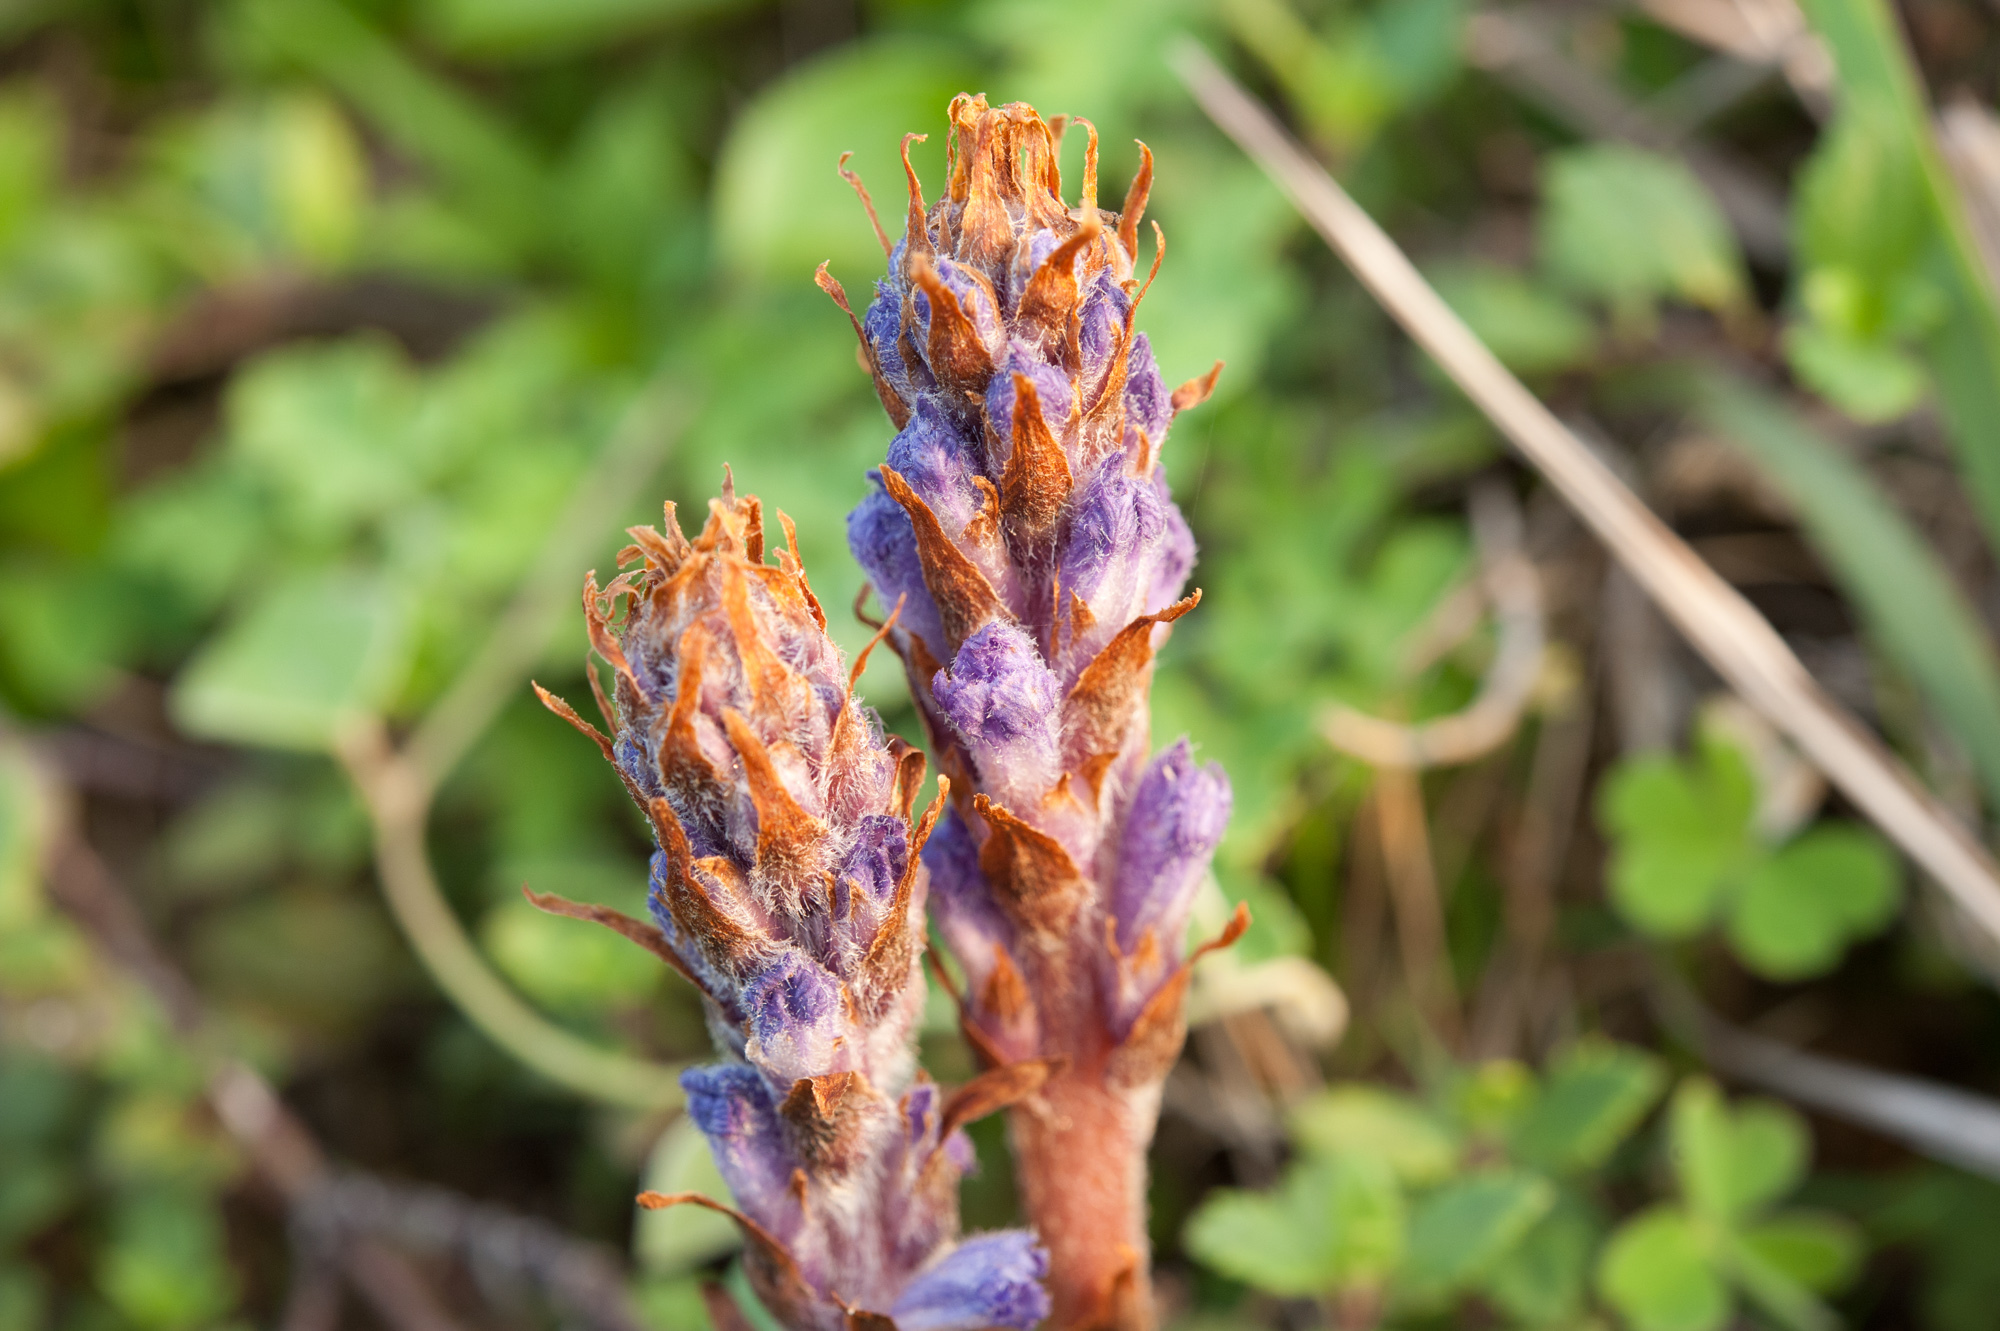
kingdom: Plantae
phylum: Tracheophyta
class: Magnoliopsida
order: Lamiales
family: Orobanchaceae
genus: Orobanche
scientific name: Orobanche coerulescens
